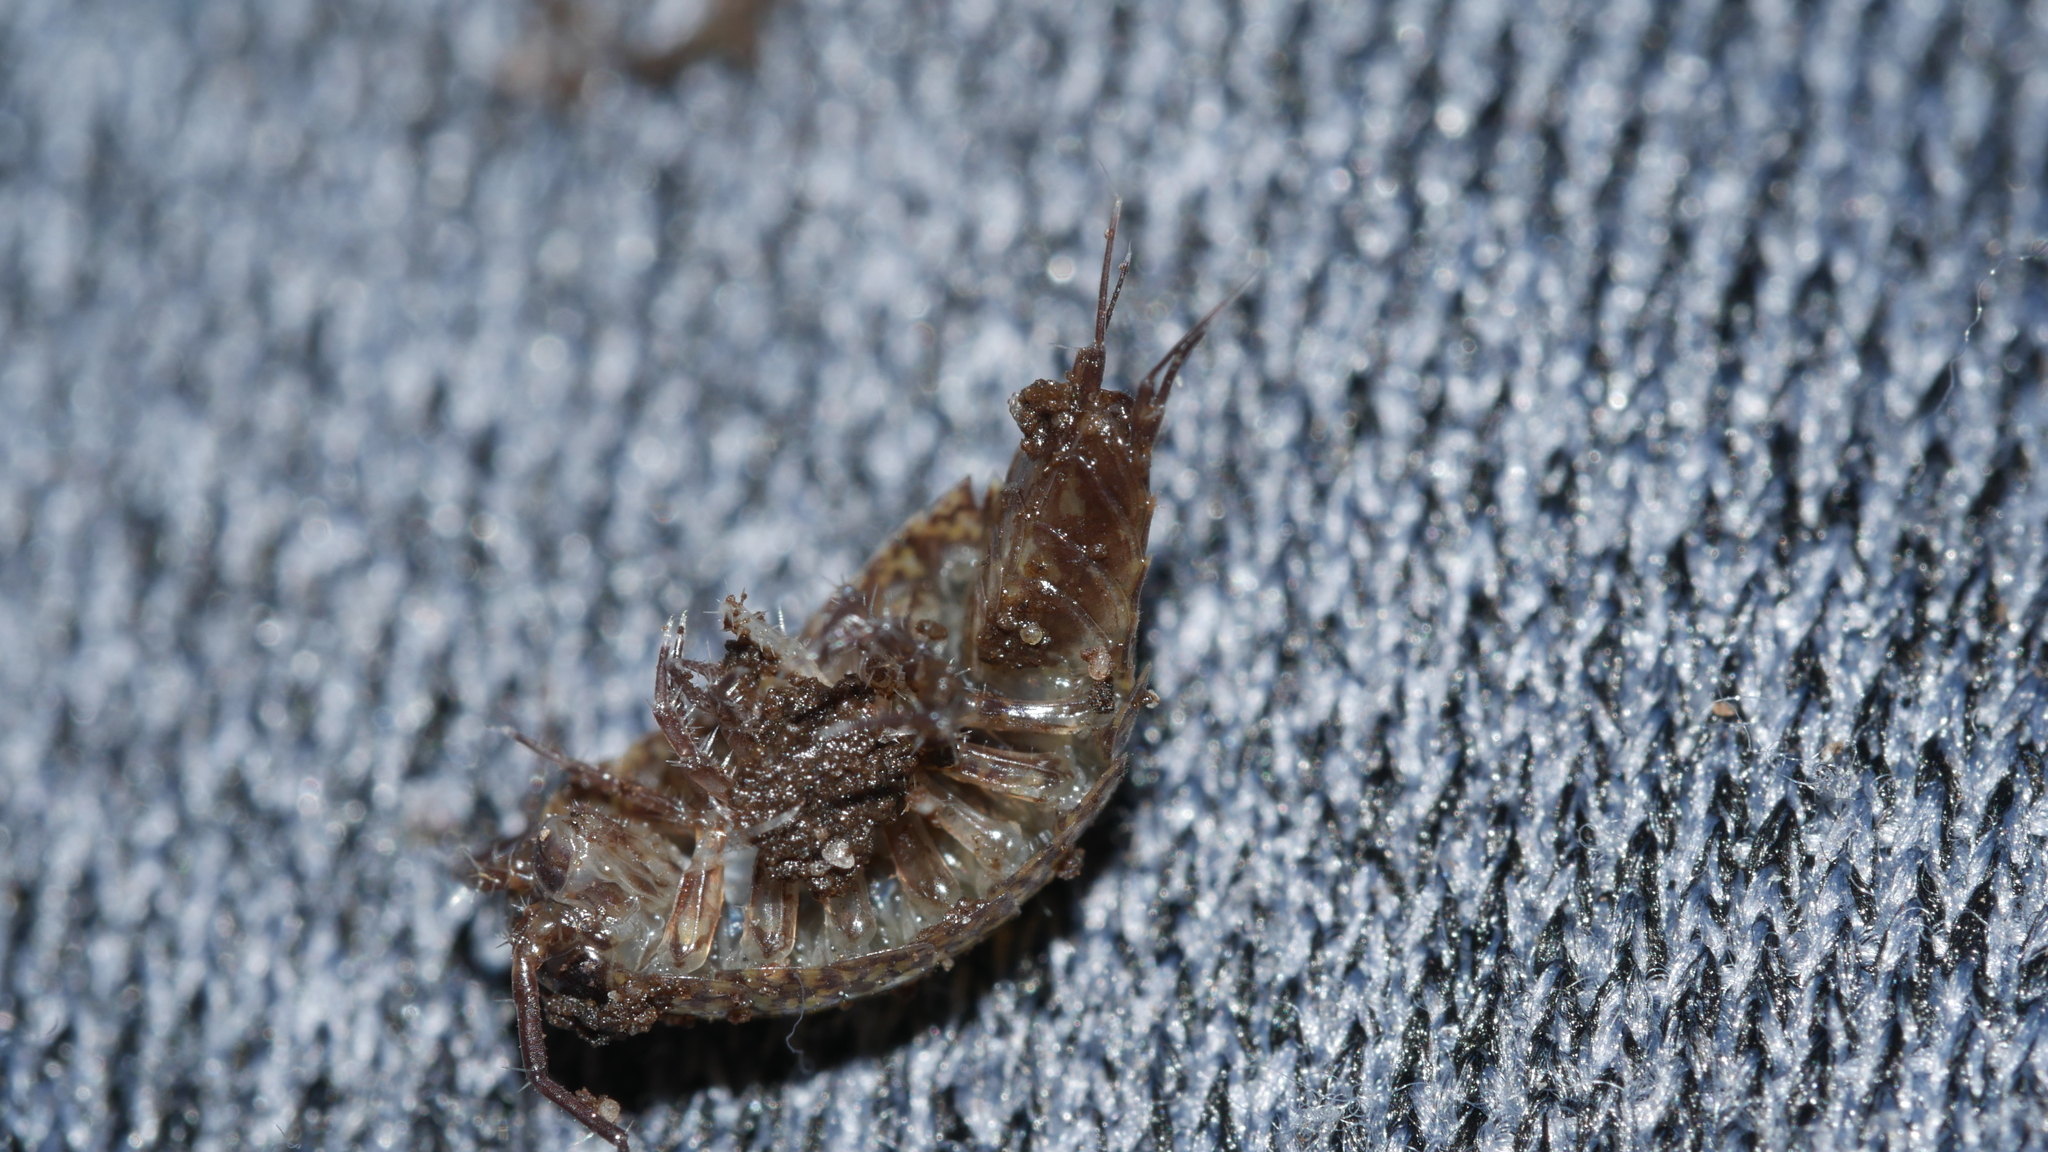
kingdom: Animalia
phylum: Arthropoda
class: Malacostraca
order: Isopoda
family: Ligiidae
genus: Ligidium
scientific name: Ligidium elrodii
